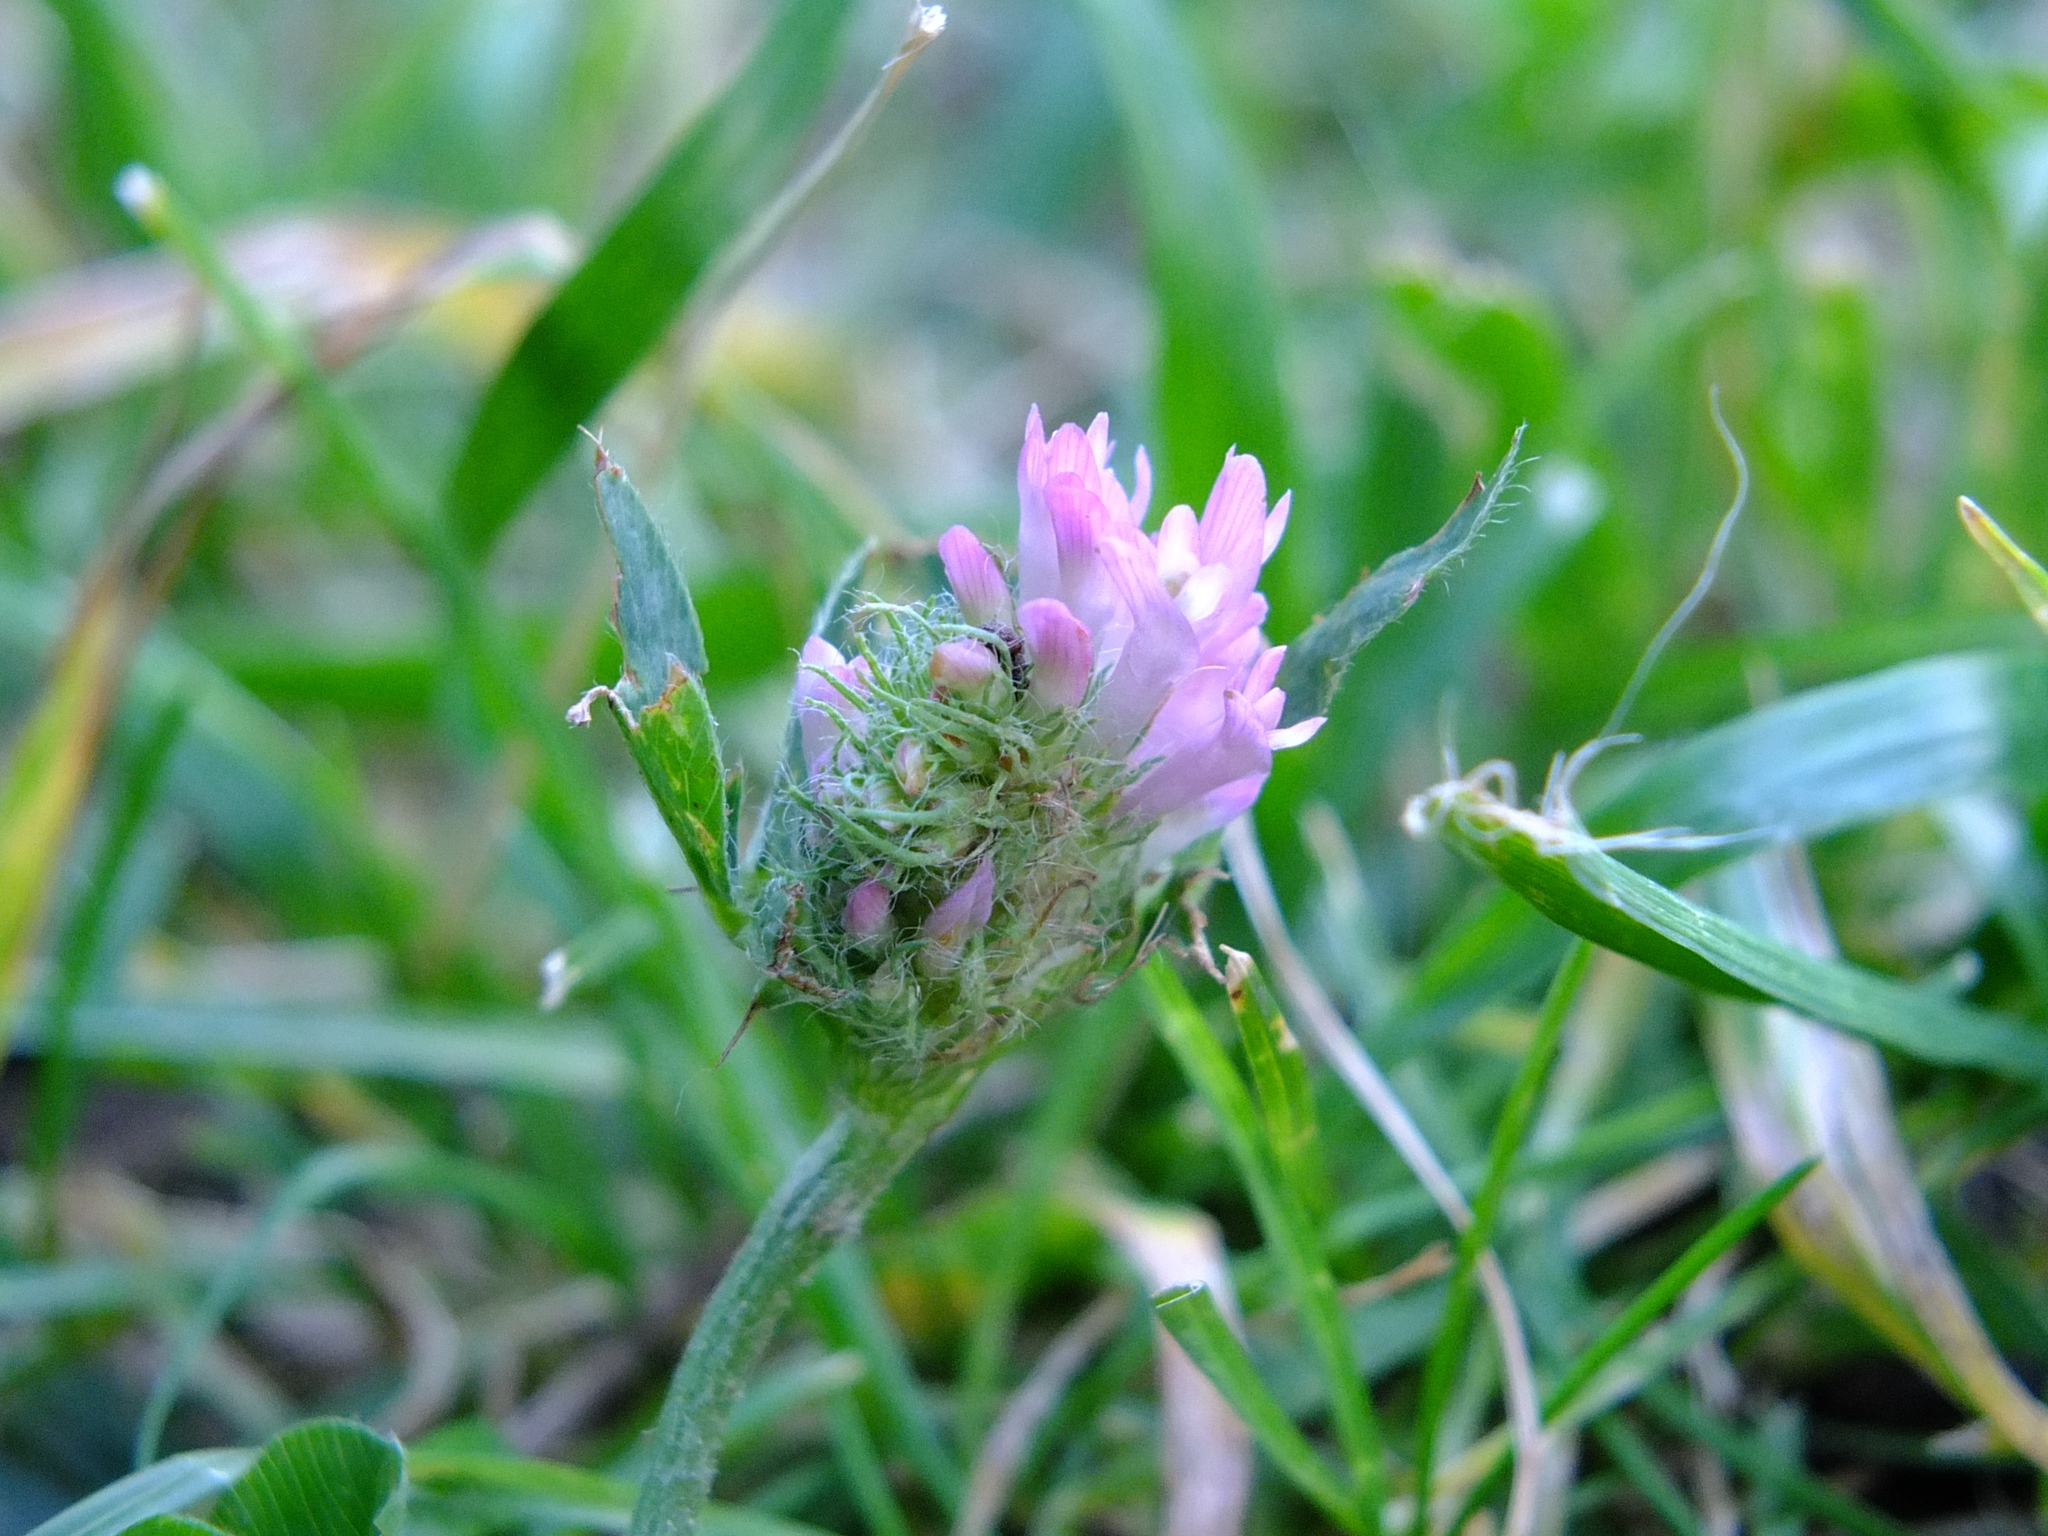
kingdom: Plantae
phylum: Tracheophyta
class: Magnoliopsida
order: Fabales
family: Fabaceae
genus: Trifolium
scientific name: Trifolium pratense
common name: Red clover
